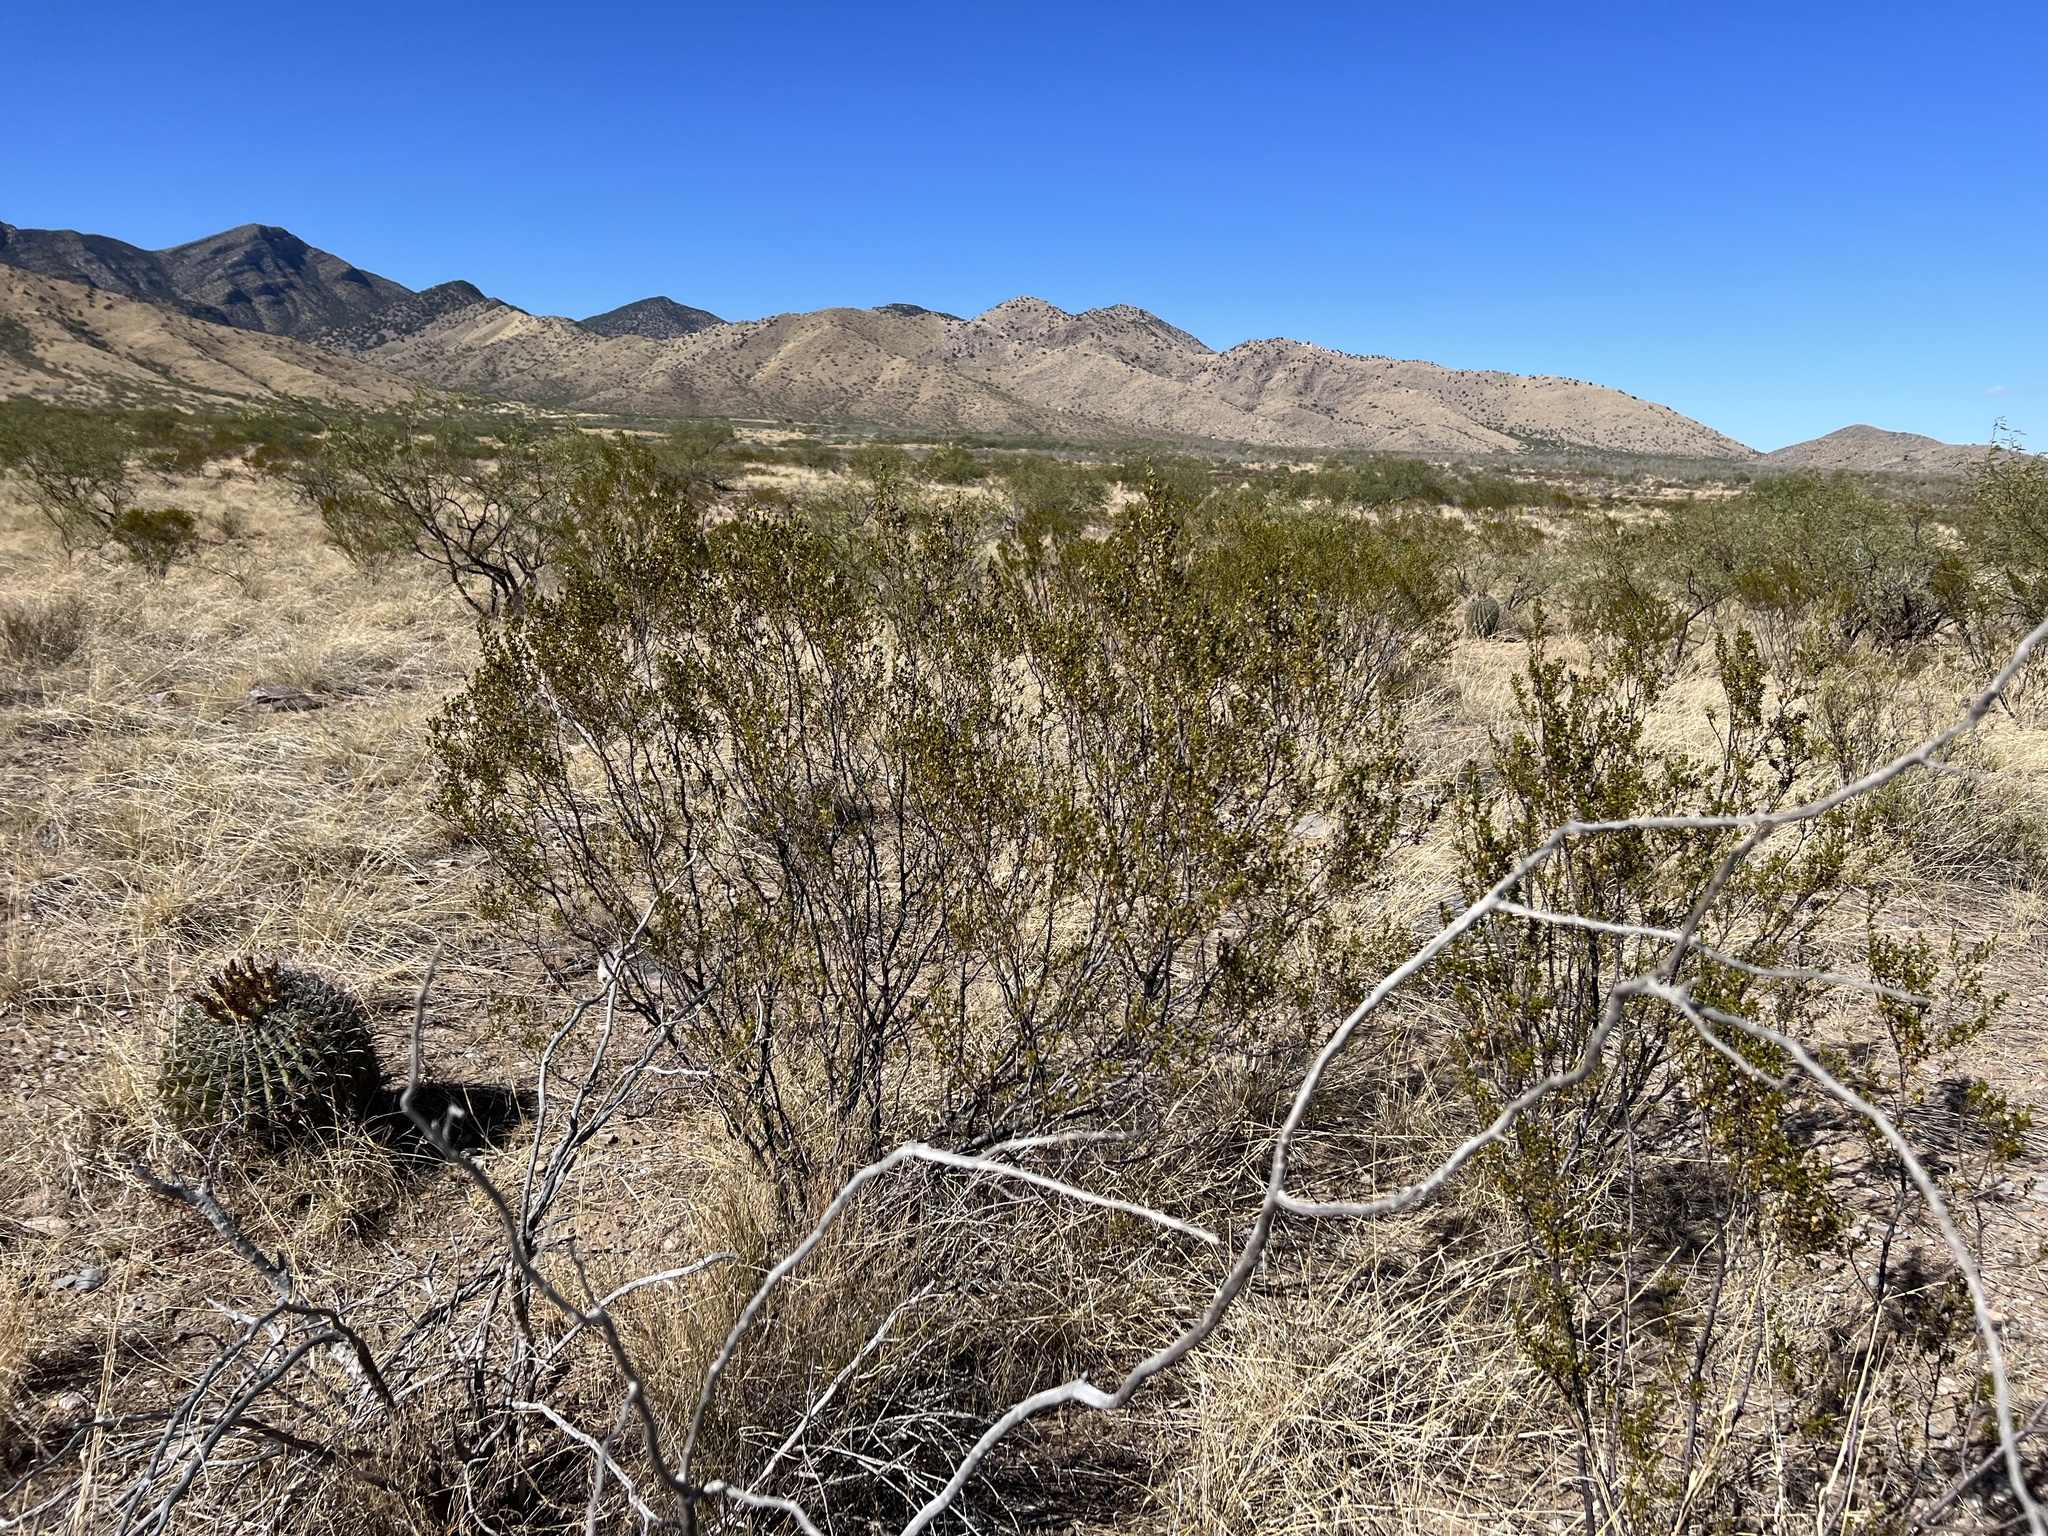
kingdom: Plantae
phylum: Tracheophyta
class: Magnoliopsida
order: Zygophyllales
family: Zygophyllaceae
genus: Larrea
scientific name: Larrea tridentata
